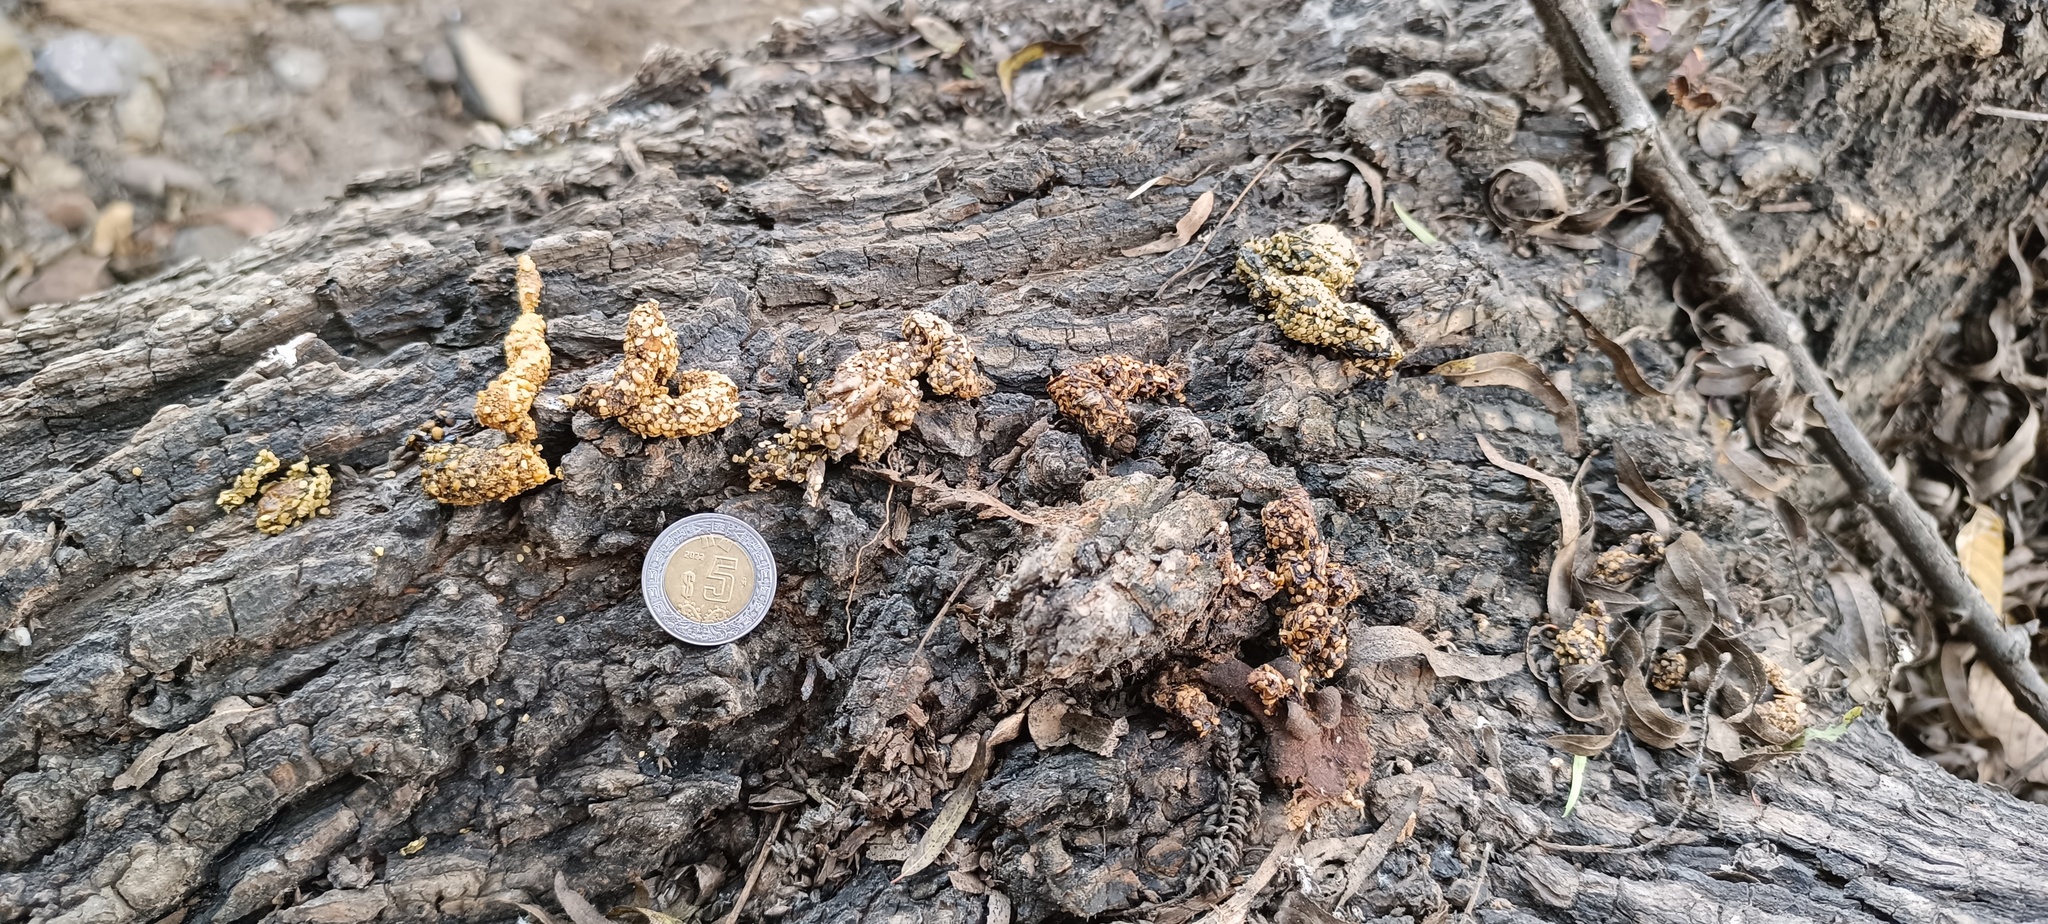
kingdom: Animalia
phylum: Chordata
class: Mammalia
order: Carnivora
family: Procyonidae
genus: Bassariscus
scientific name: Bassariscus astutus
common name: Ringtail
